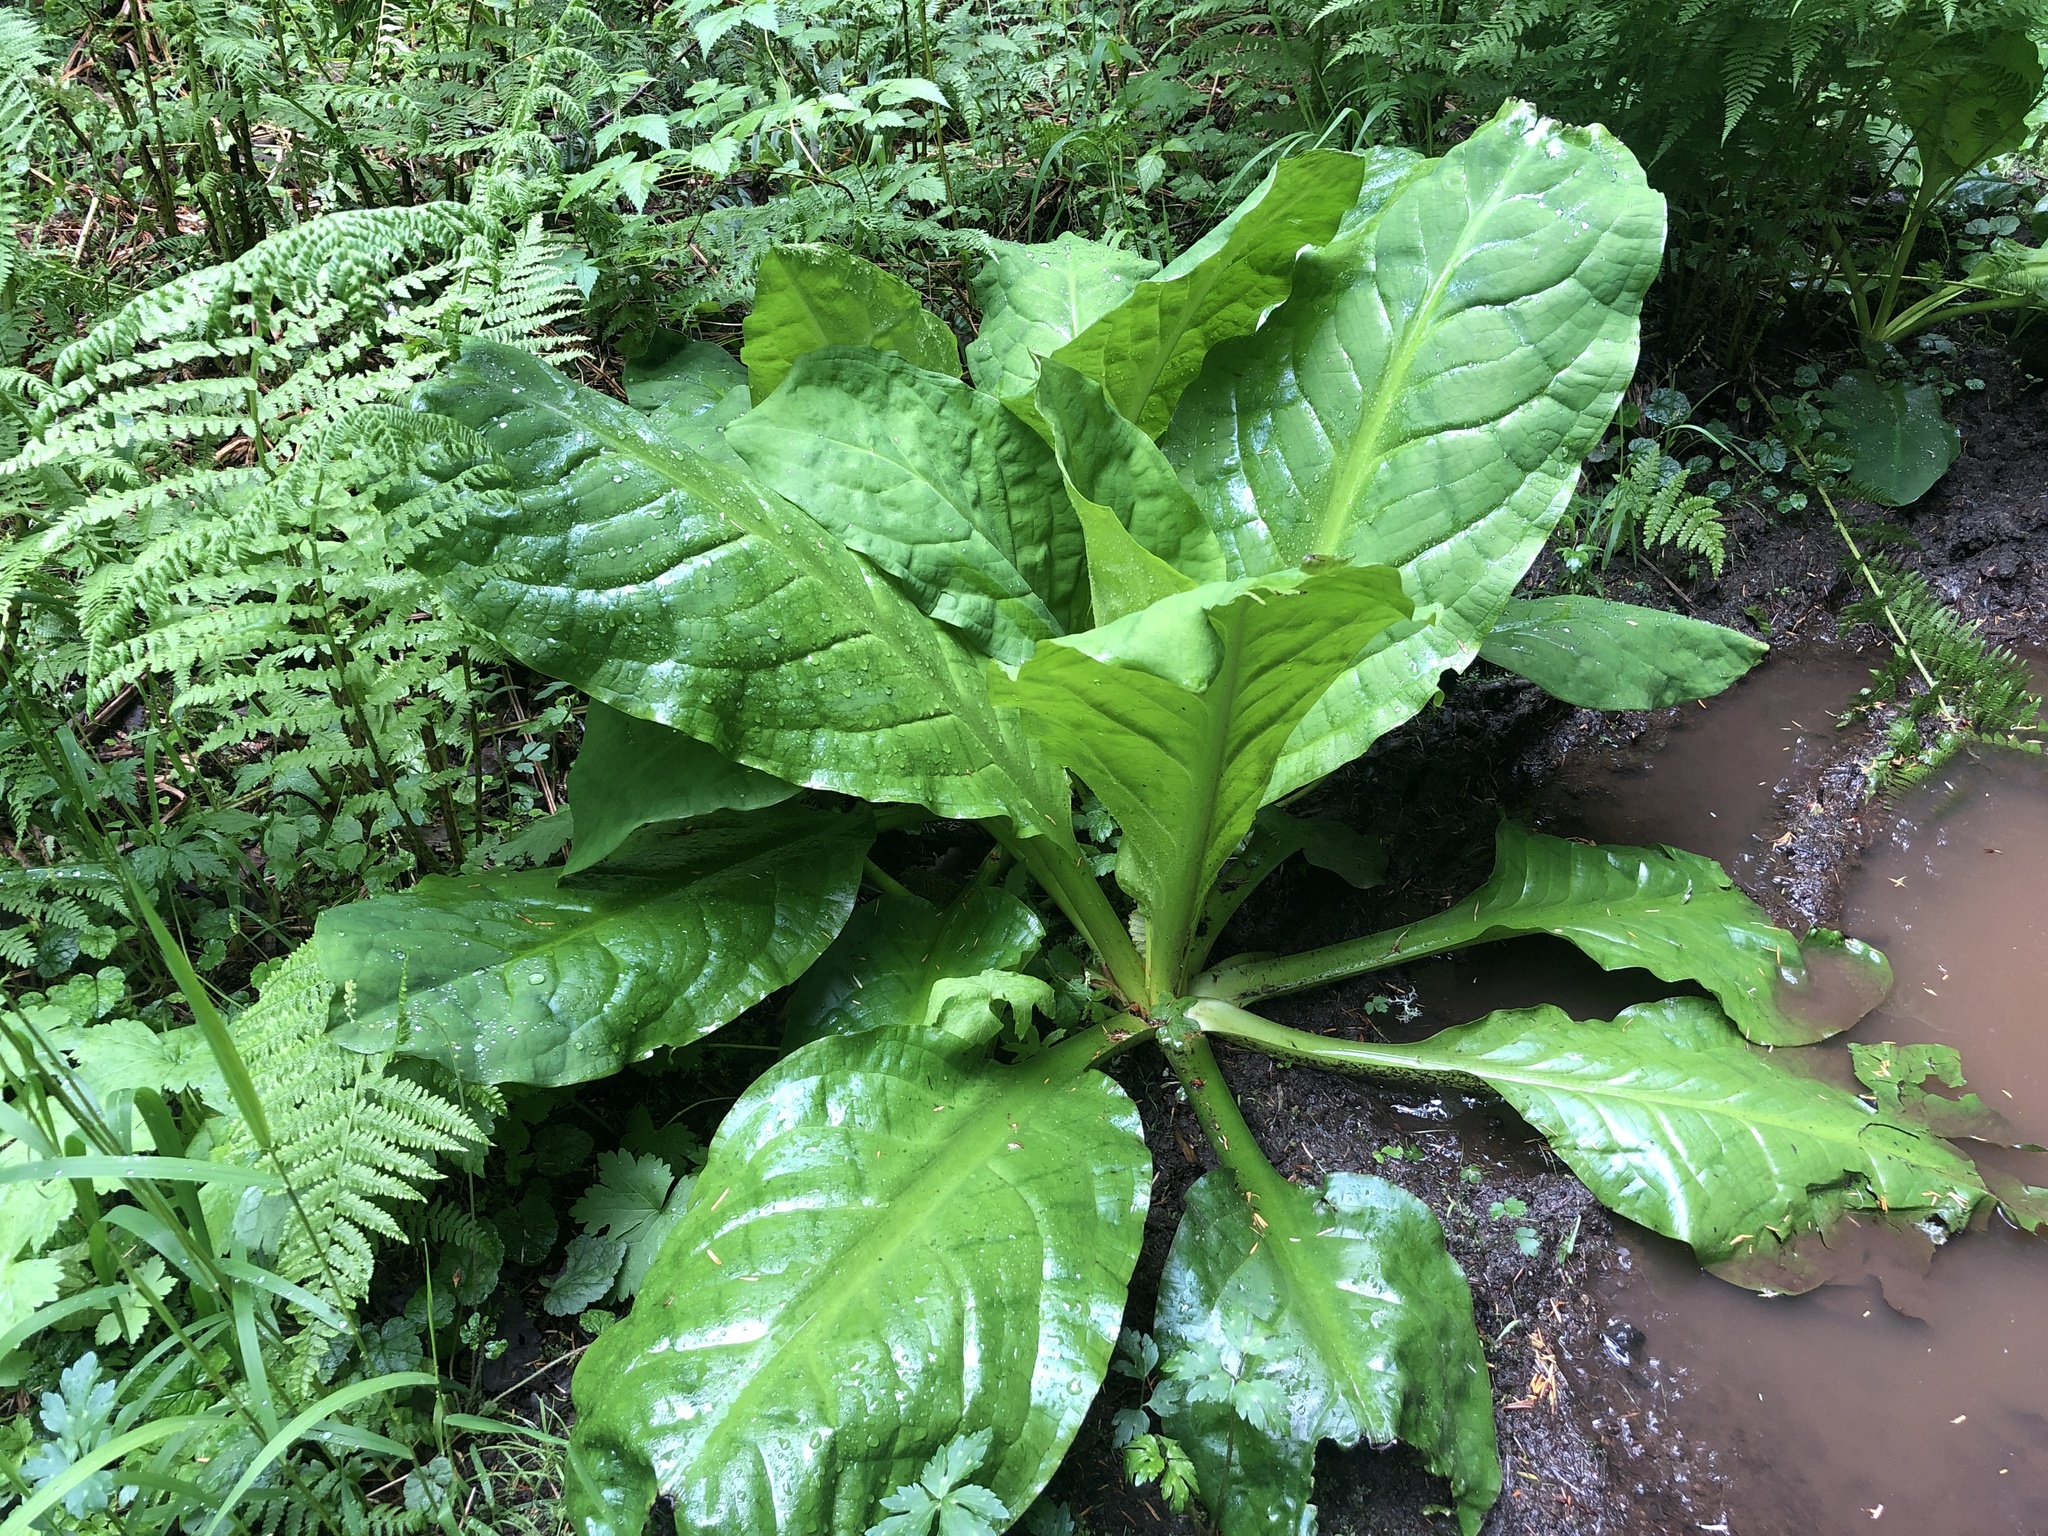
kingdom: Plantae
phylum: Tracheophyta
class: Liliopsida
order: Alismatales
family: Araceae
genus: Lysichiton
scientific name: Lysichiton americanus
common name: American skunk cabbage
